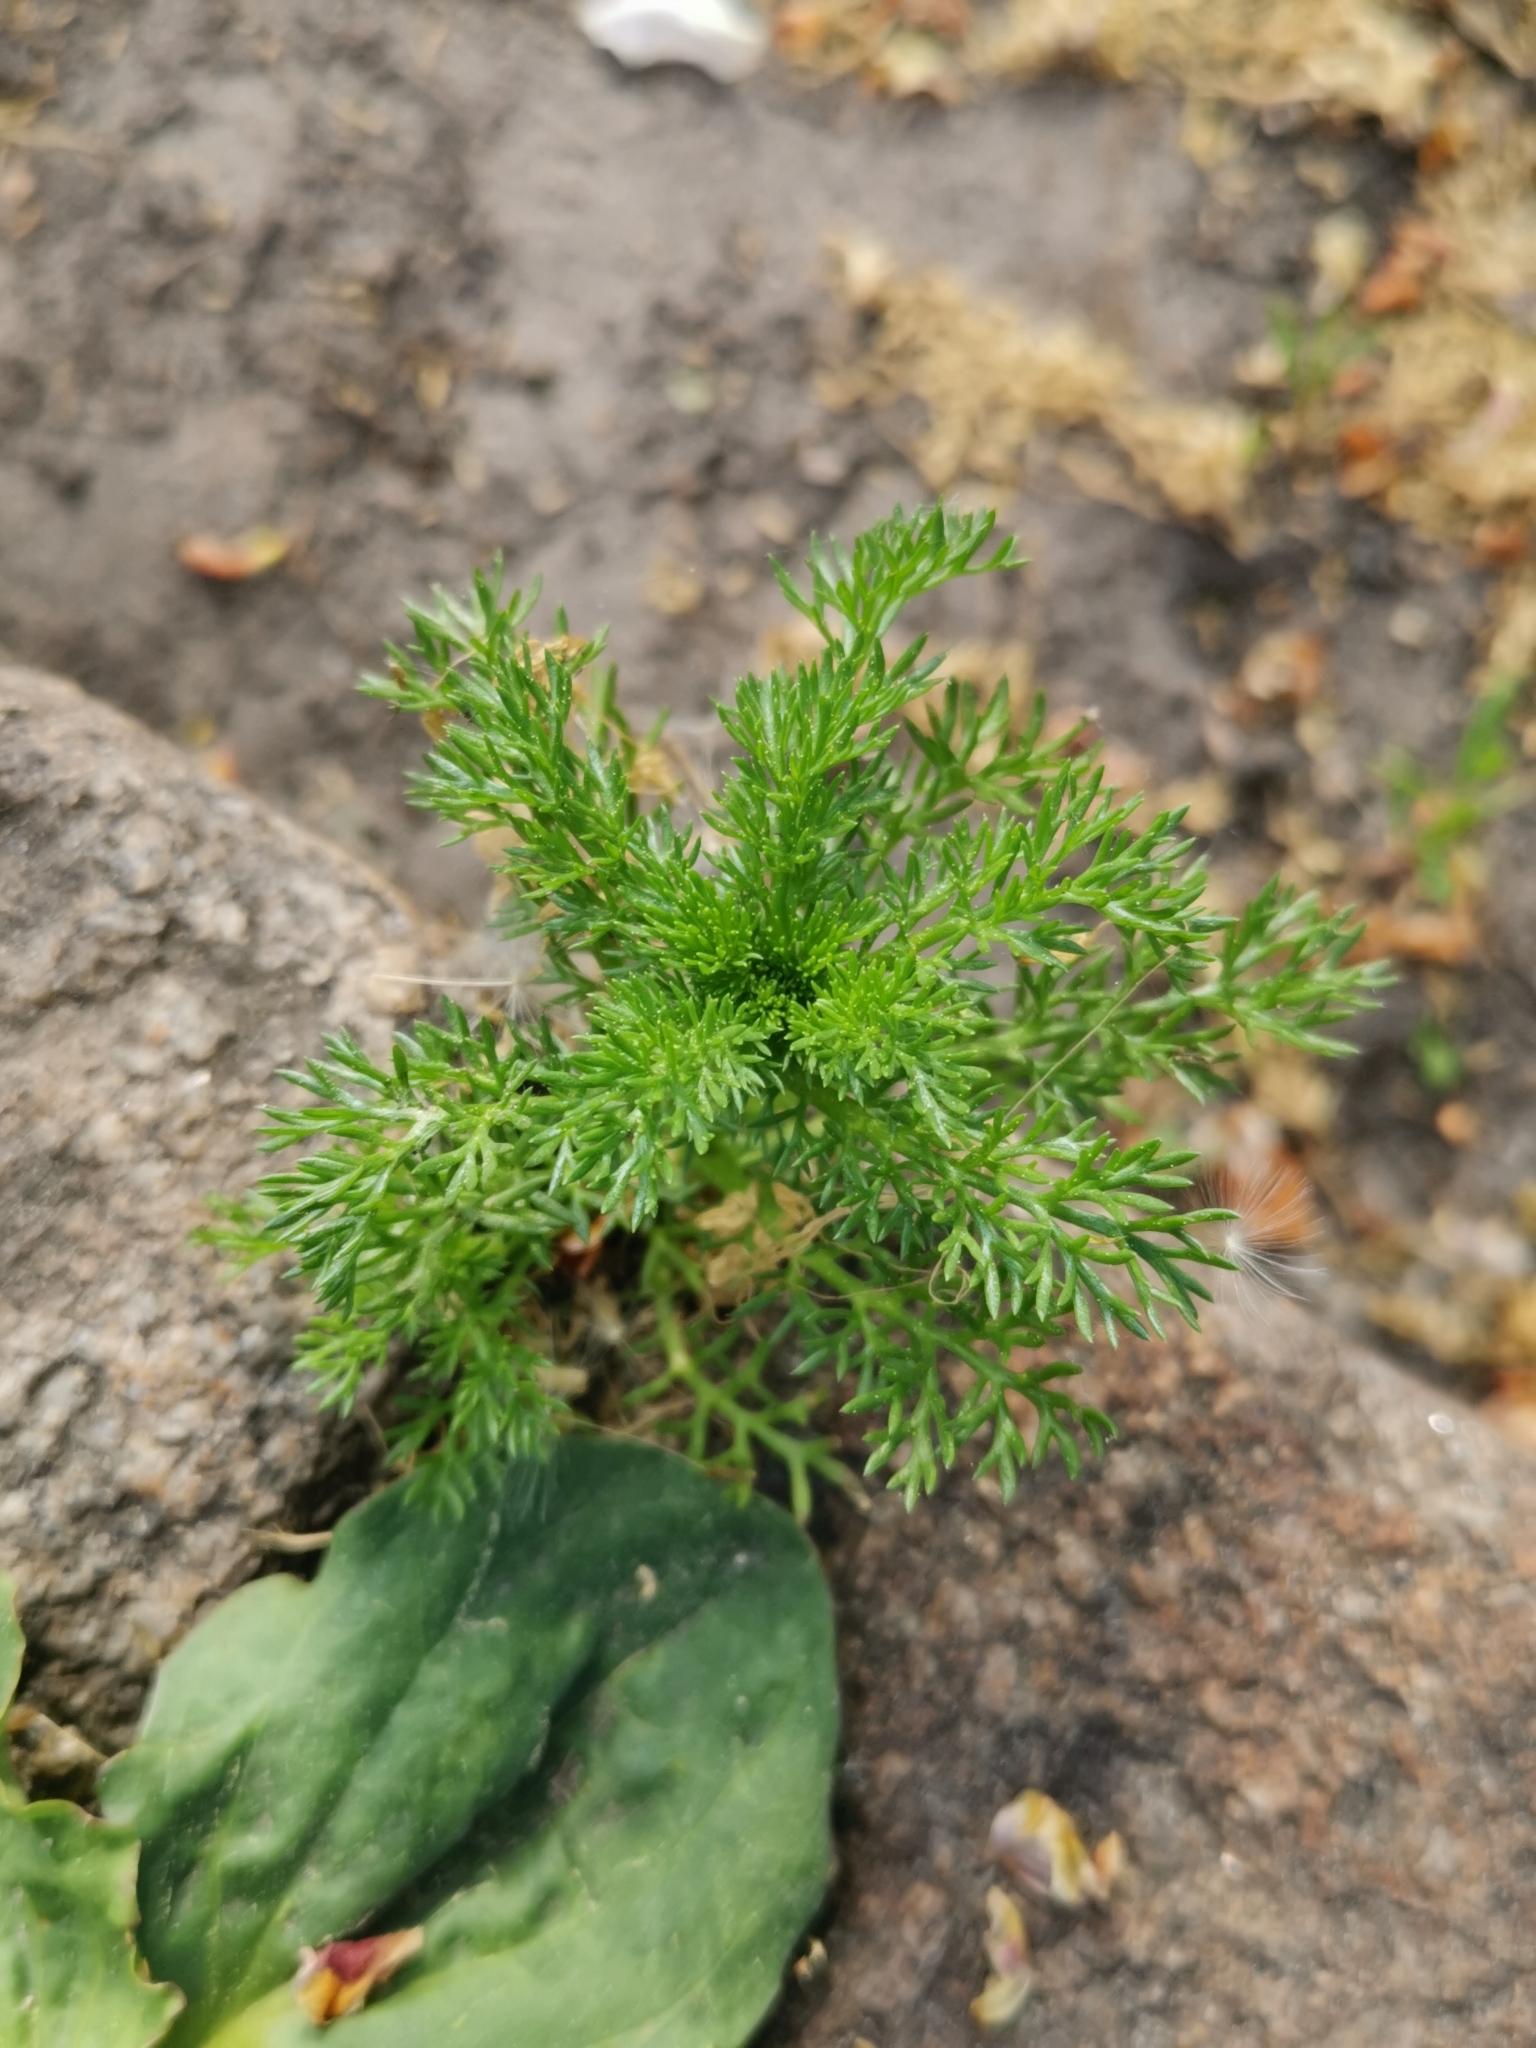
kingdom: Plantae
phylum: Tracheophyta
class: Magnoliopsida
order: Asterales
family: Asteraceae
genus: Matricaria
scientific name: Matricaria discoidea
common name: Disc mayweed
